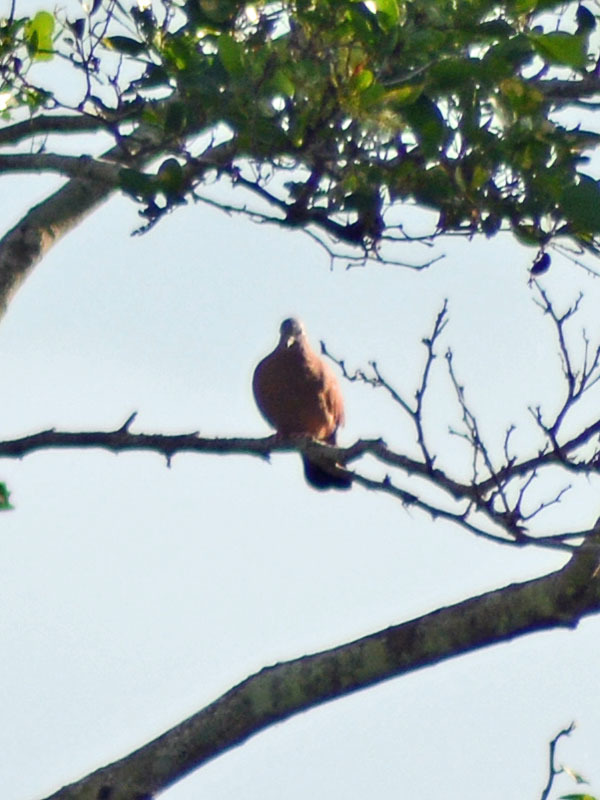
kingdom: Animalia
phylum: Chordata
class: Aves
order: Columbiformes
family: Columbidae
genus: Columbina
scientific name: Columbina talpacoti
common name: Ruddy ground dove
